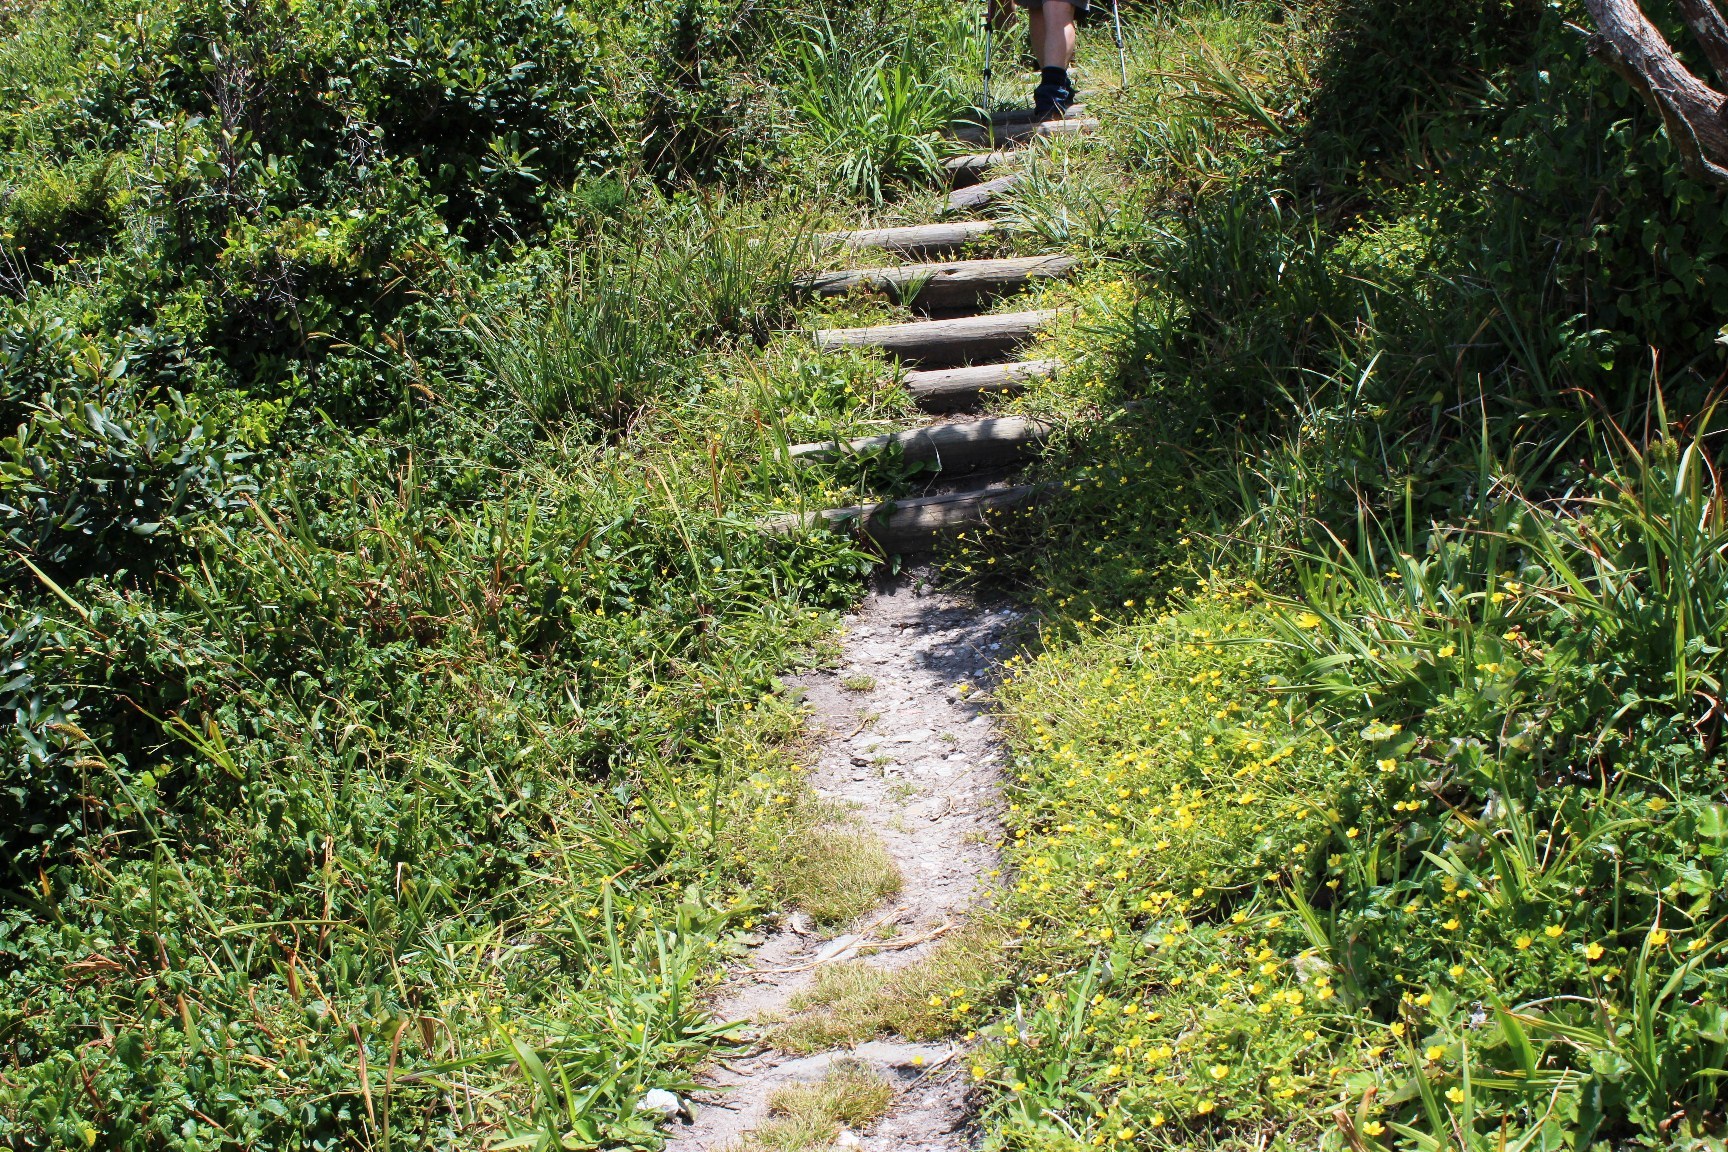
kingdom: Plantae
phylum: Tracheophyta
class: Magnoliopsida
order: Ranunculales
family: Ranunculaceae
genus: Ranunculus
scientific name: Ranunculus multifidus
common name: Wild buttercup
